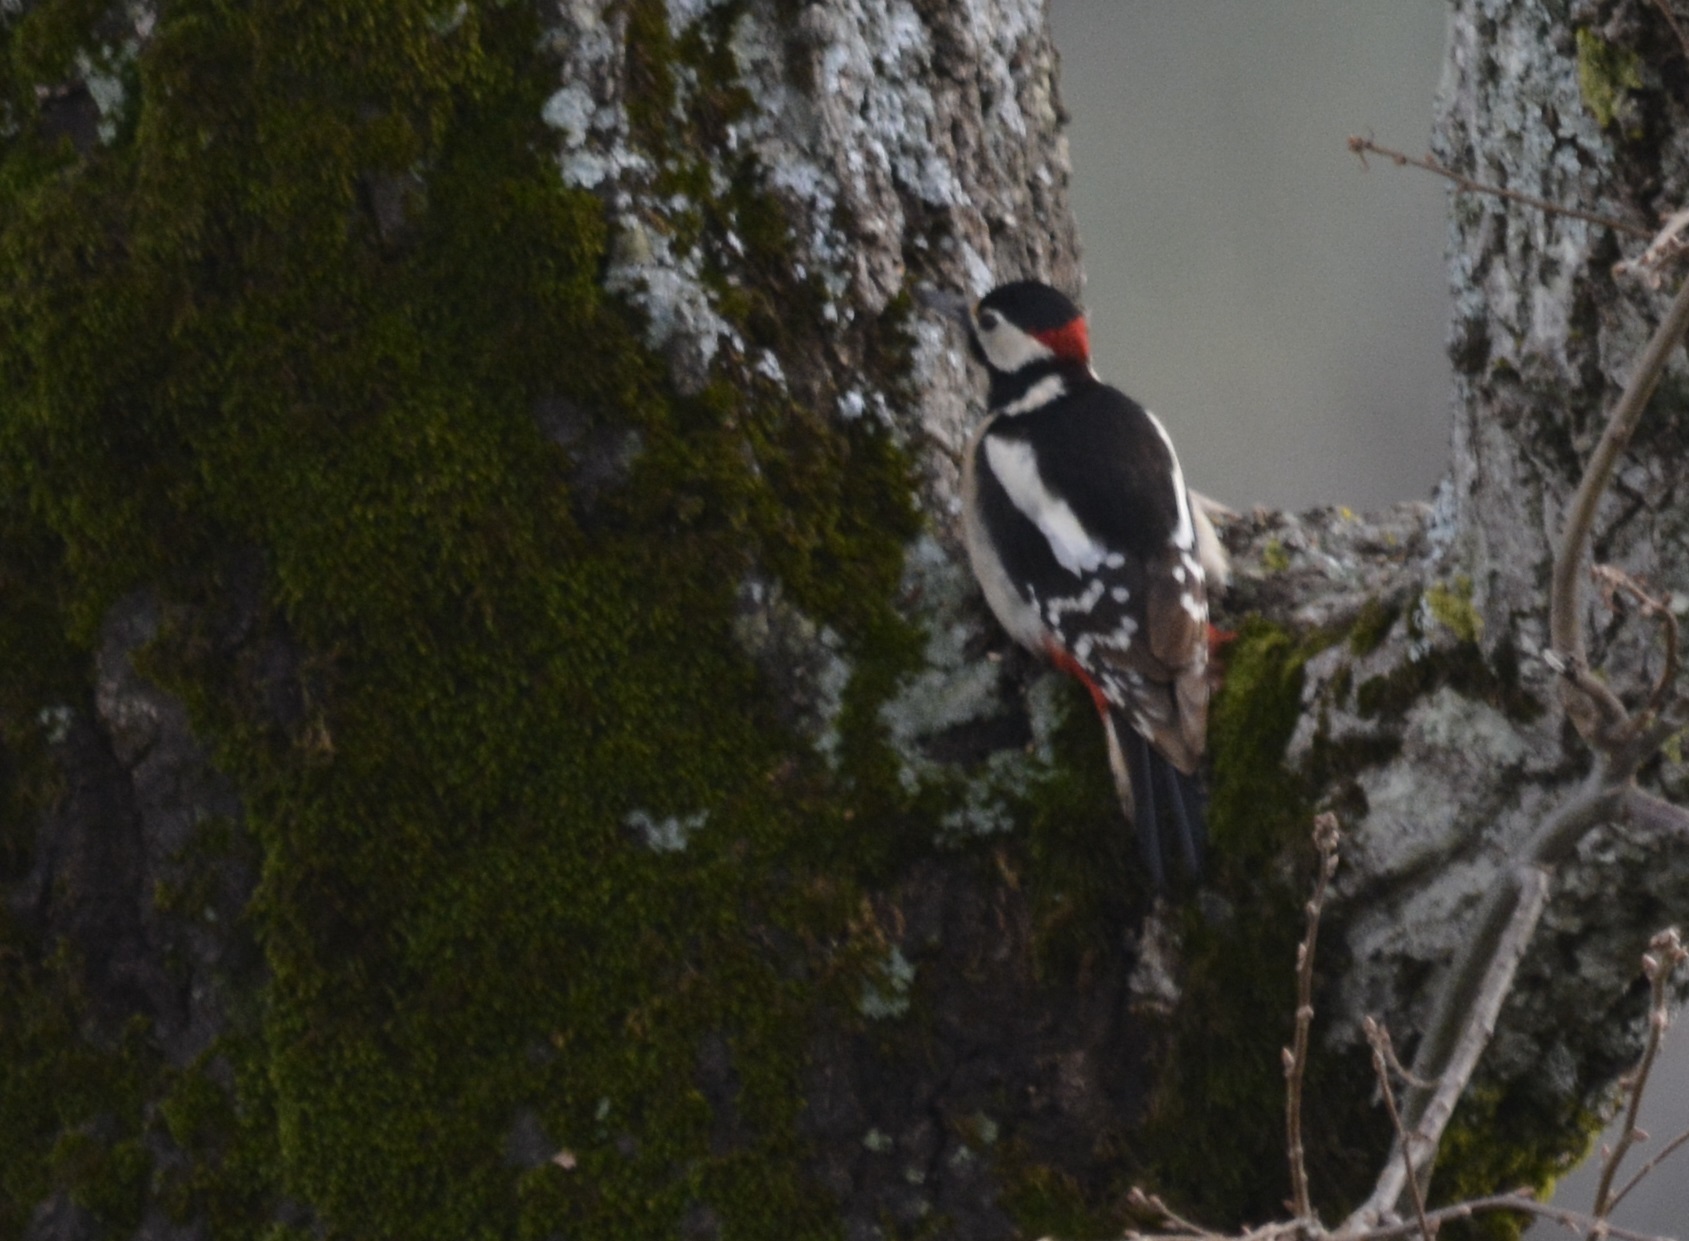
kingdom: Animalia
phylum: Chordata
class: Aves
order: Piciformes
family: Picidae
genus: Dendrocopos
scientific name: Dendrocopos major
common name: Great spotted woodpecker
